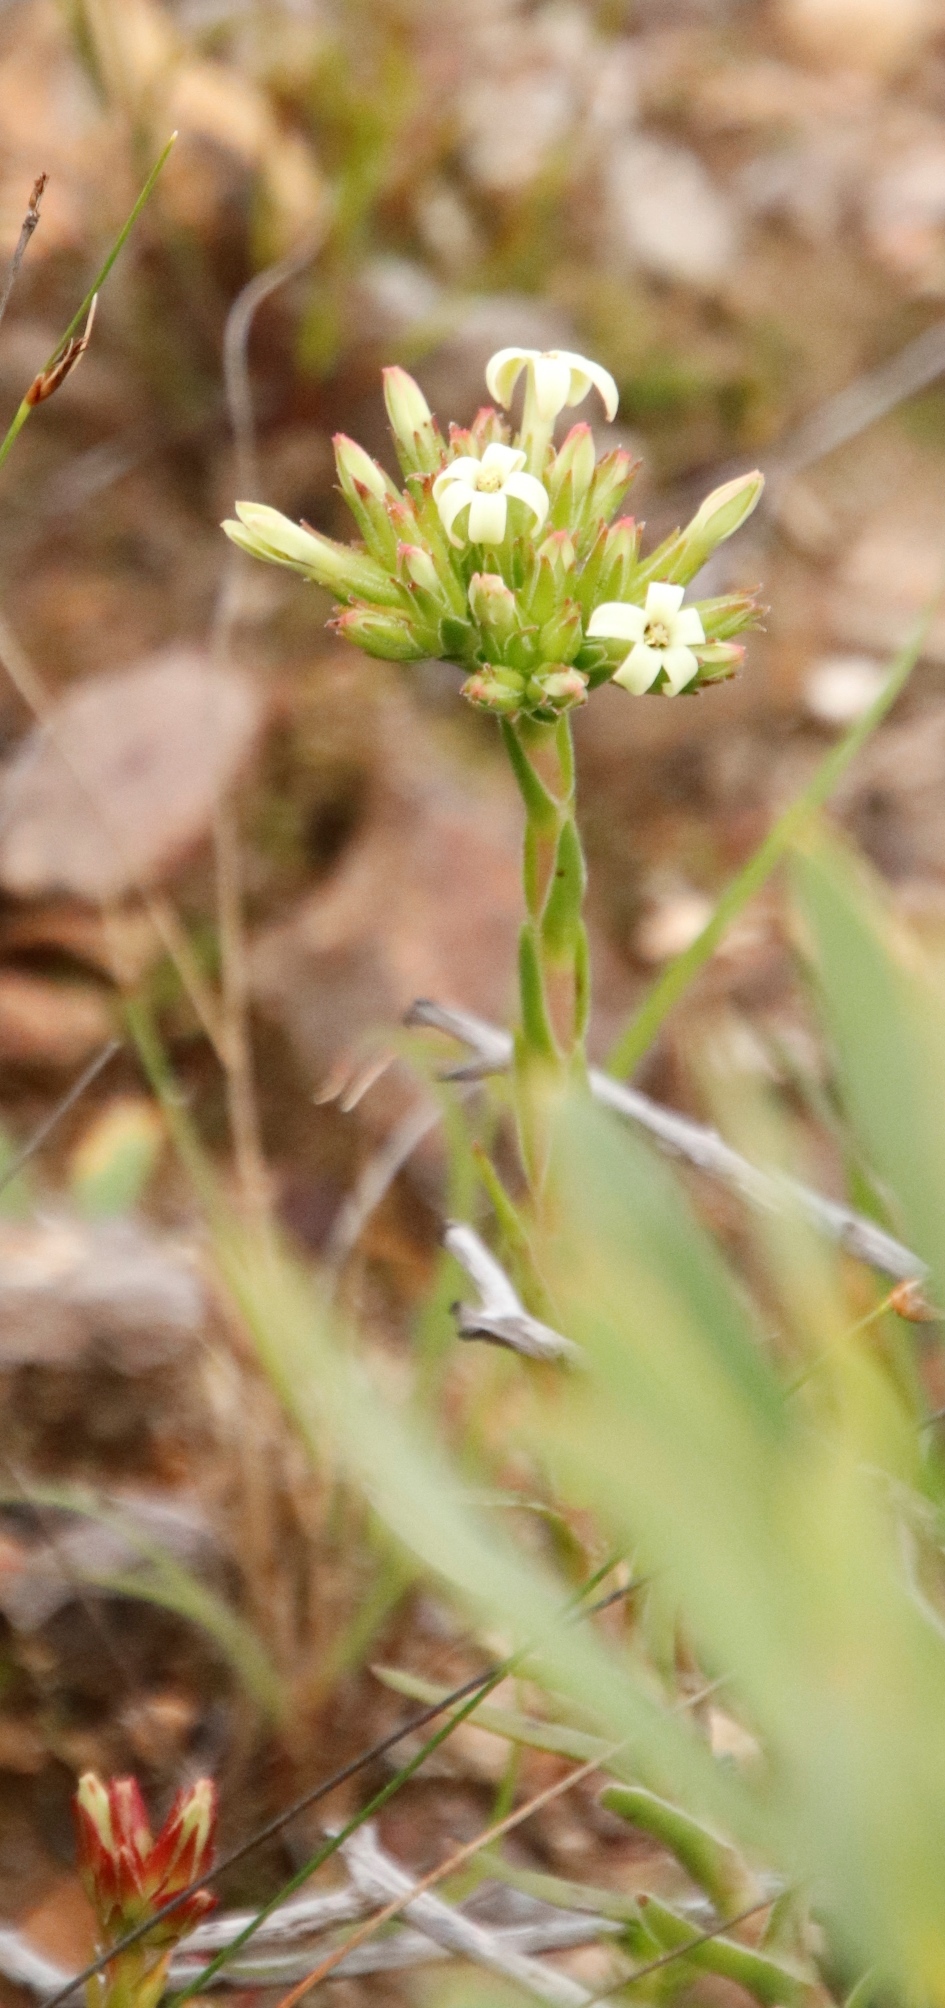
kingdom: Plantae
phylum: Tracheophyta
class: Magnoliopsida
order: Saxifragales
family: Crassulaceae
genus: Crassula
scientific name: Crassula fascicularis
